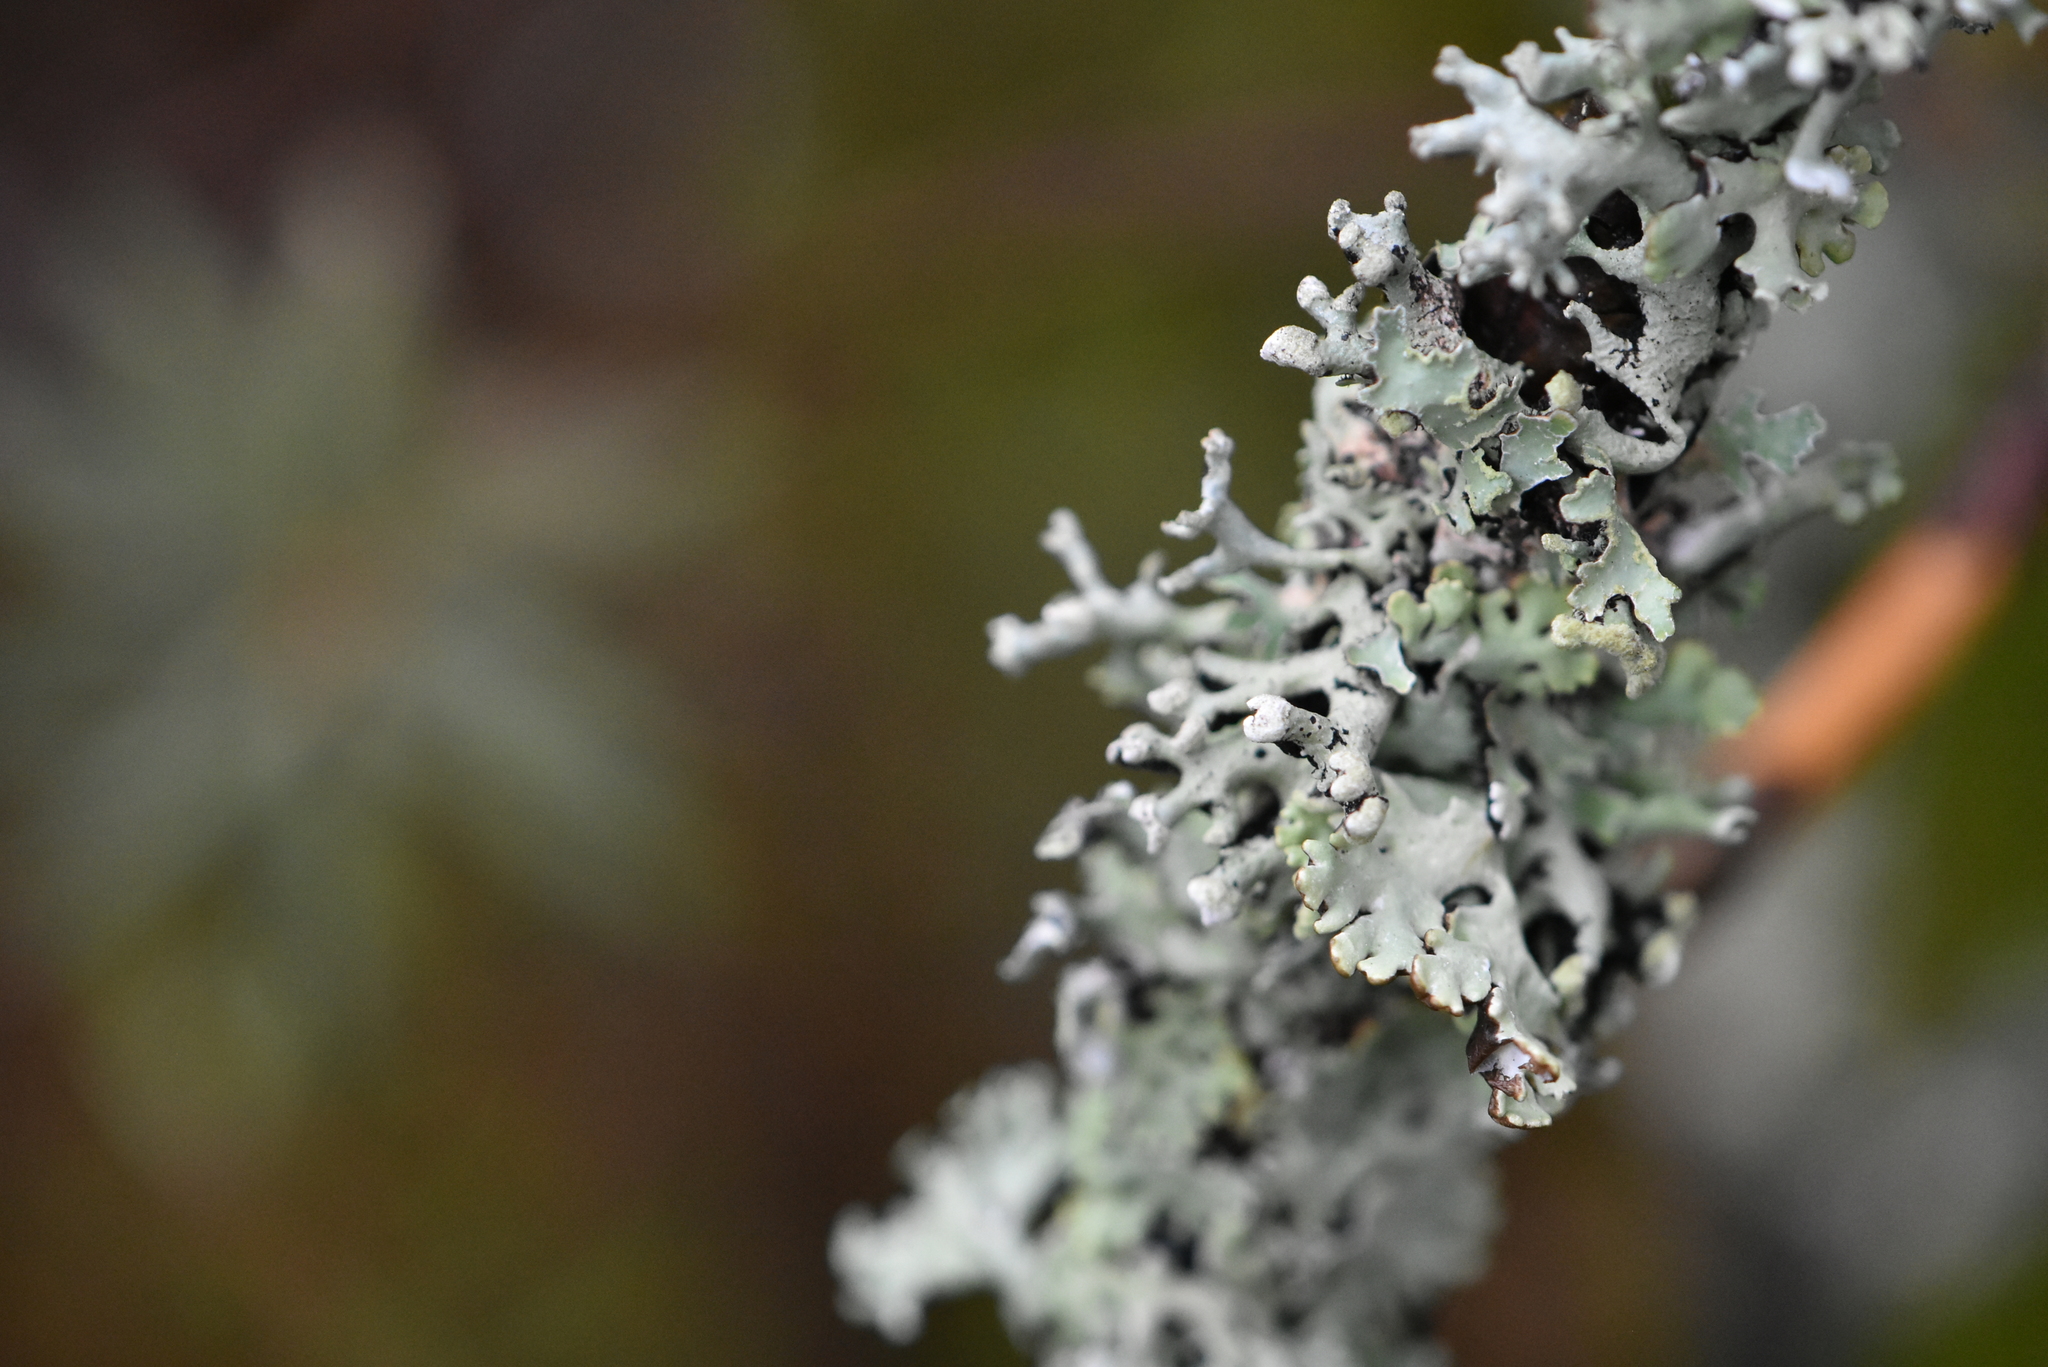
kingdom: Fungi
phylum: Ascomycota
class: Lecanoromycetes
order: Lecanorales
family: Parmeliaceae
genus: Hypogymnia
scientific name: Hypogymnia tubulosa
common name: Powder-headed tube lichen
